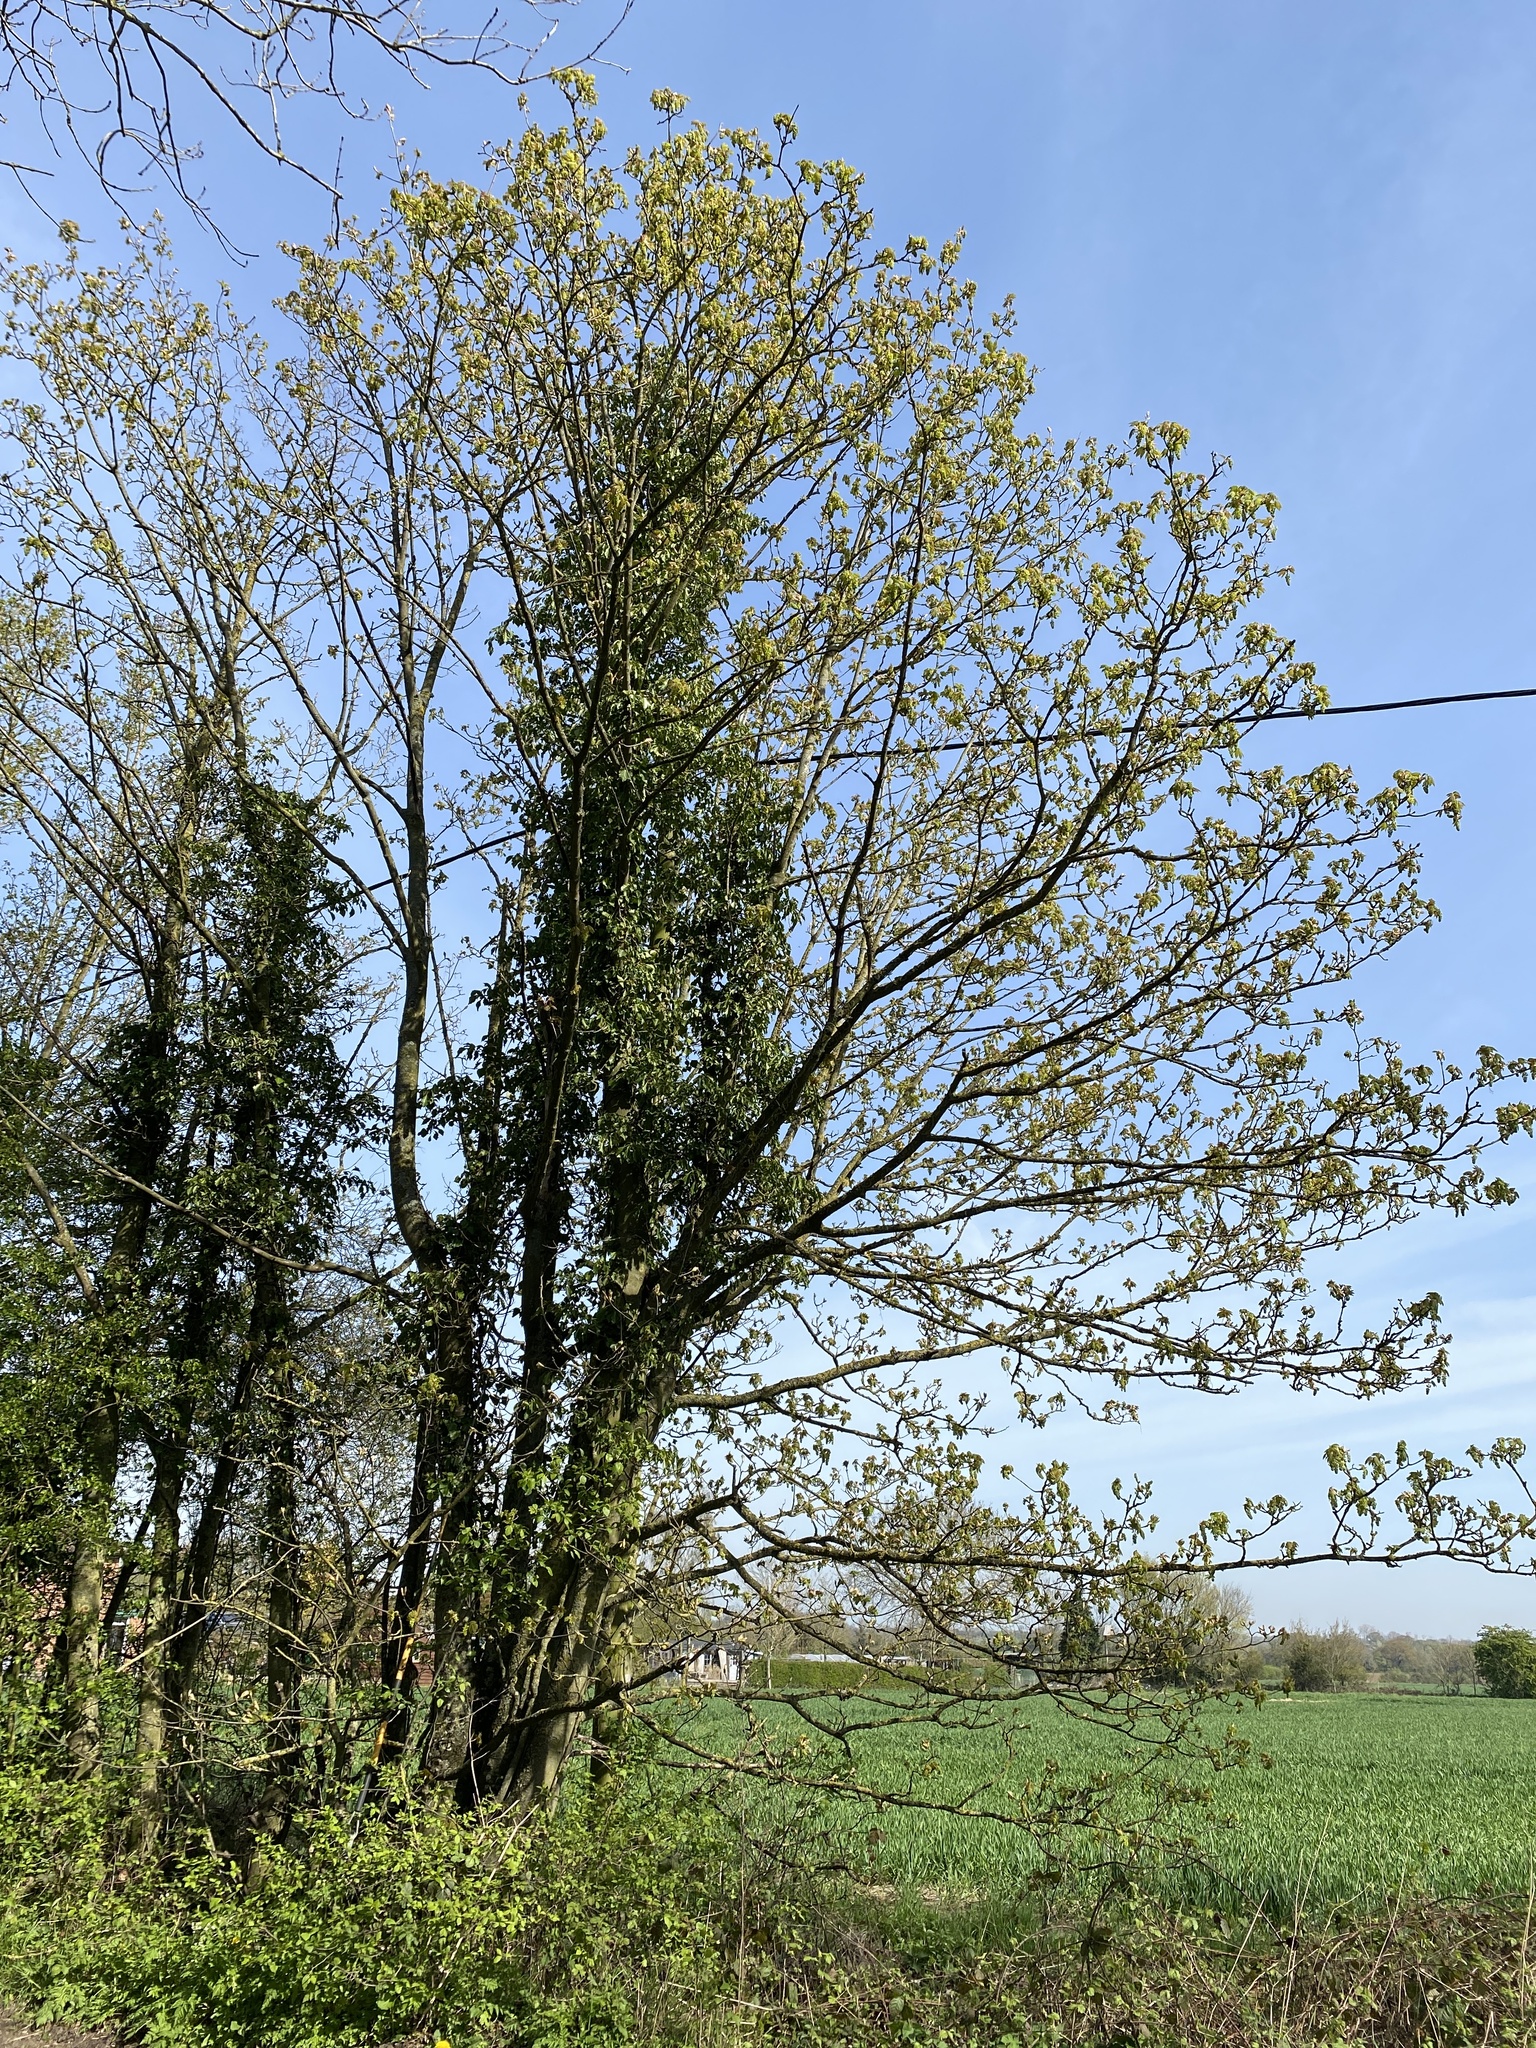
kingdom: Plantae
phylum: Tracheophyta
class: Magnoliopsida
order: Sapindales
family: Sapindaceae
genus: Acer
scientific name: Acer pseudoplatanus
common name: Sycamore
